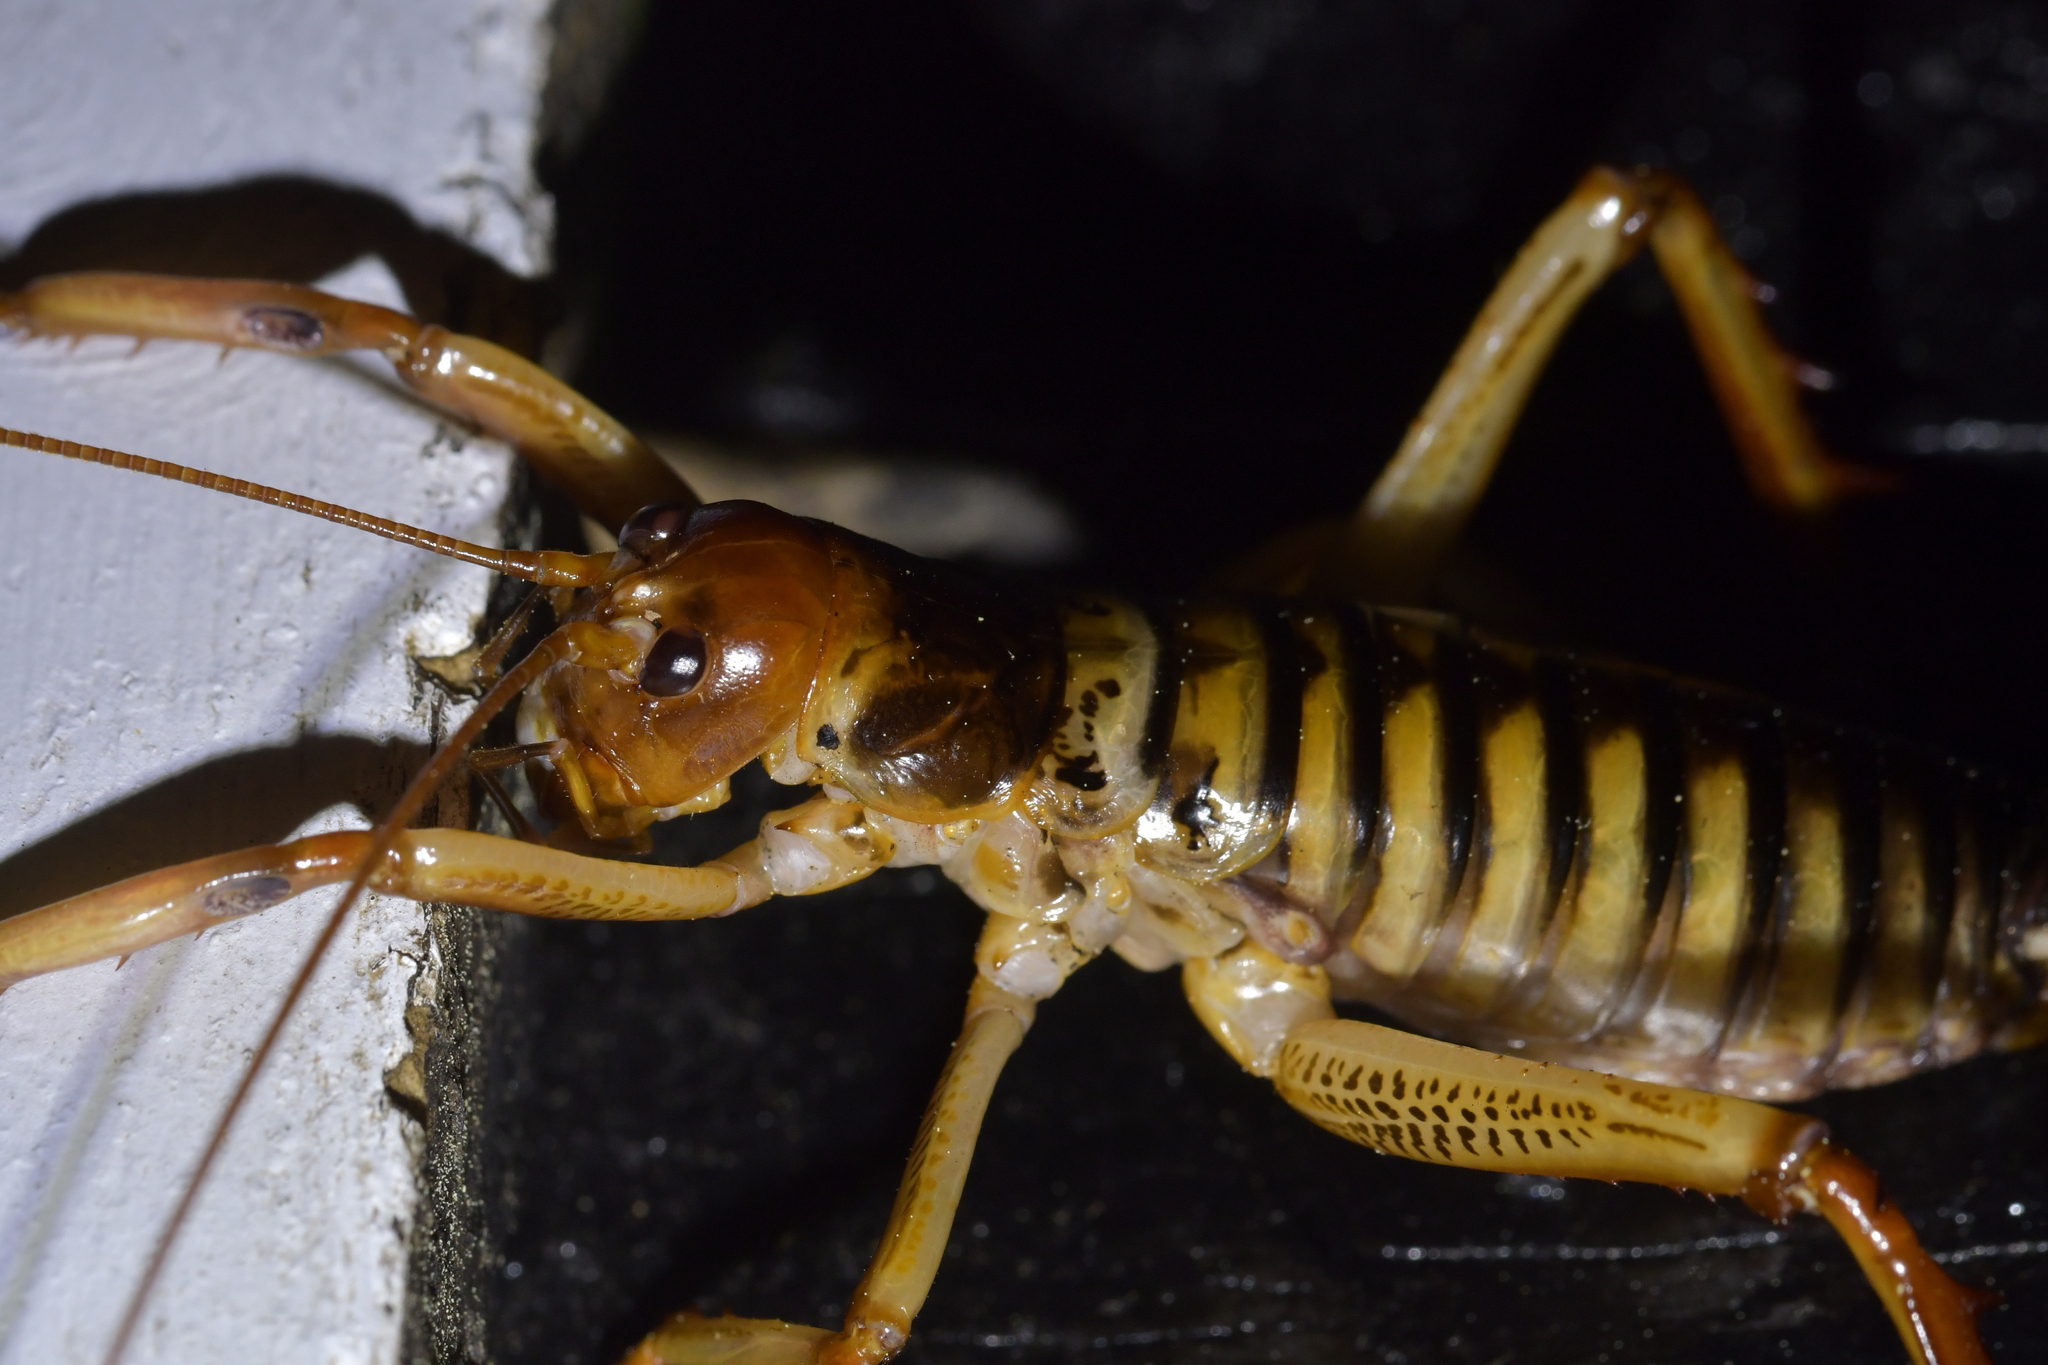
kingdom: Animalia
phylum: Arthropoda
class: Insecta
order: Orthoptera
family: Anostostomatidae
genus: Hemideina
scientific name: Hemideina crassidens
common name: Wellington tree weta
